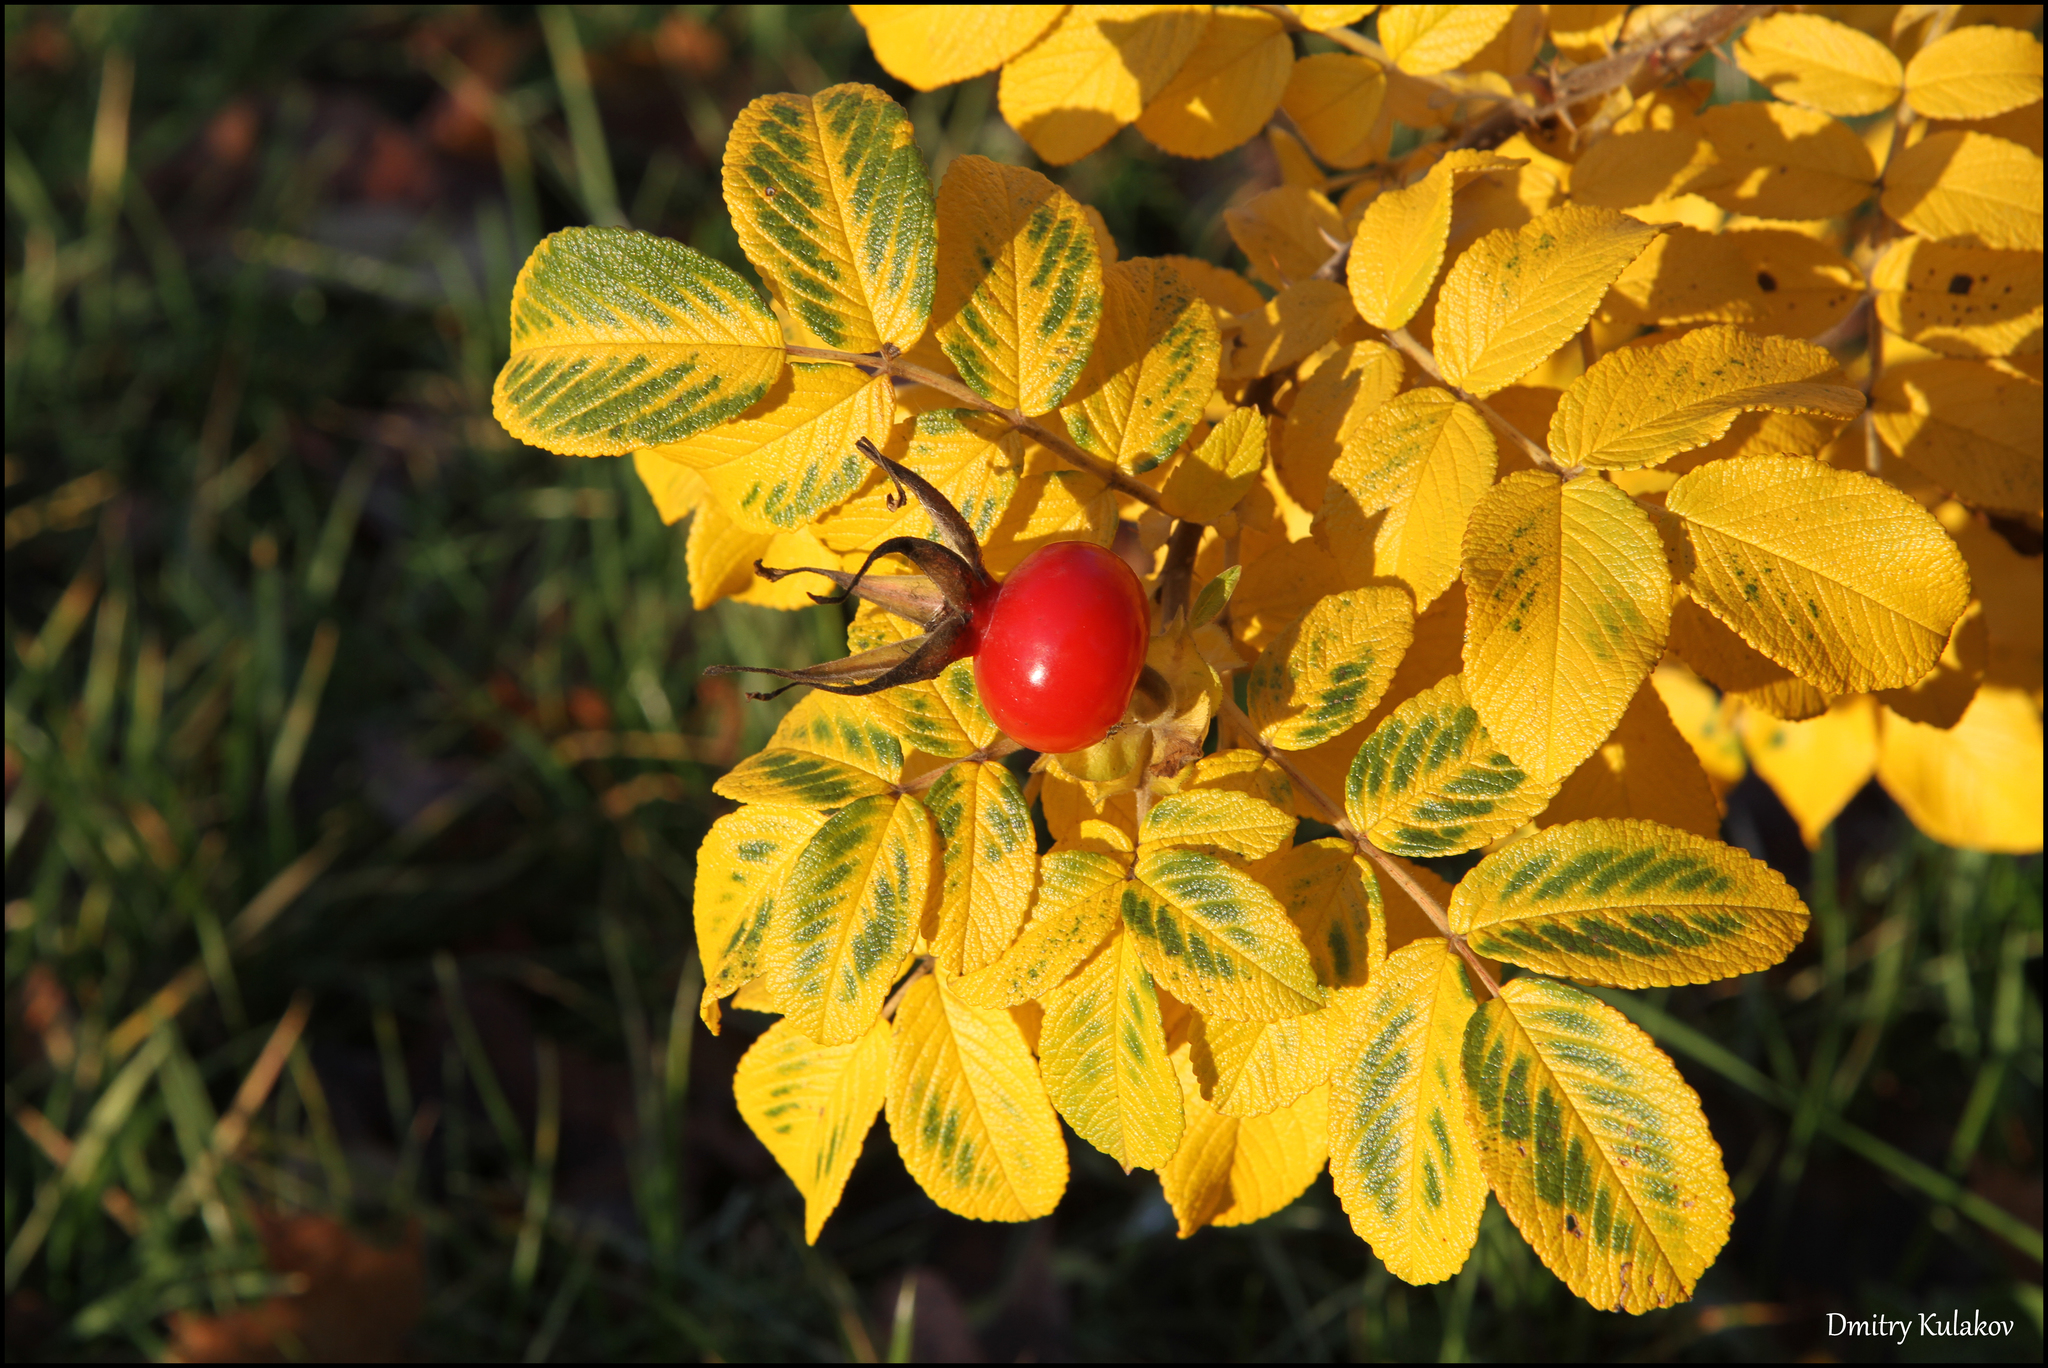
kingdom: Plantae
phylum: Tracheophyta
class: Magnoliopsida
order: Rosales
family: Rosaceae
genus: Rosa
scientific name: Rosa rugosa
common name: Japanese rose
